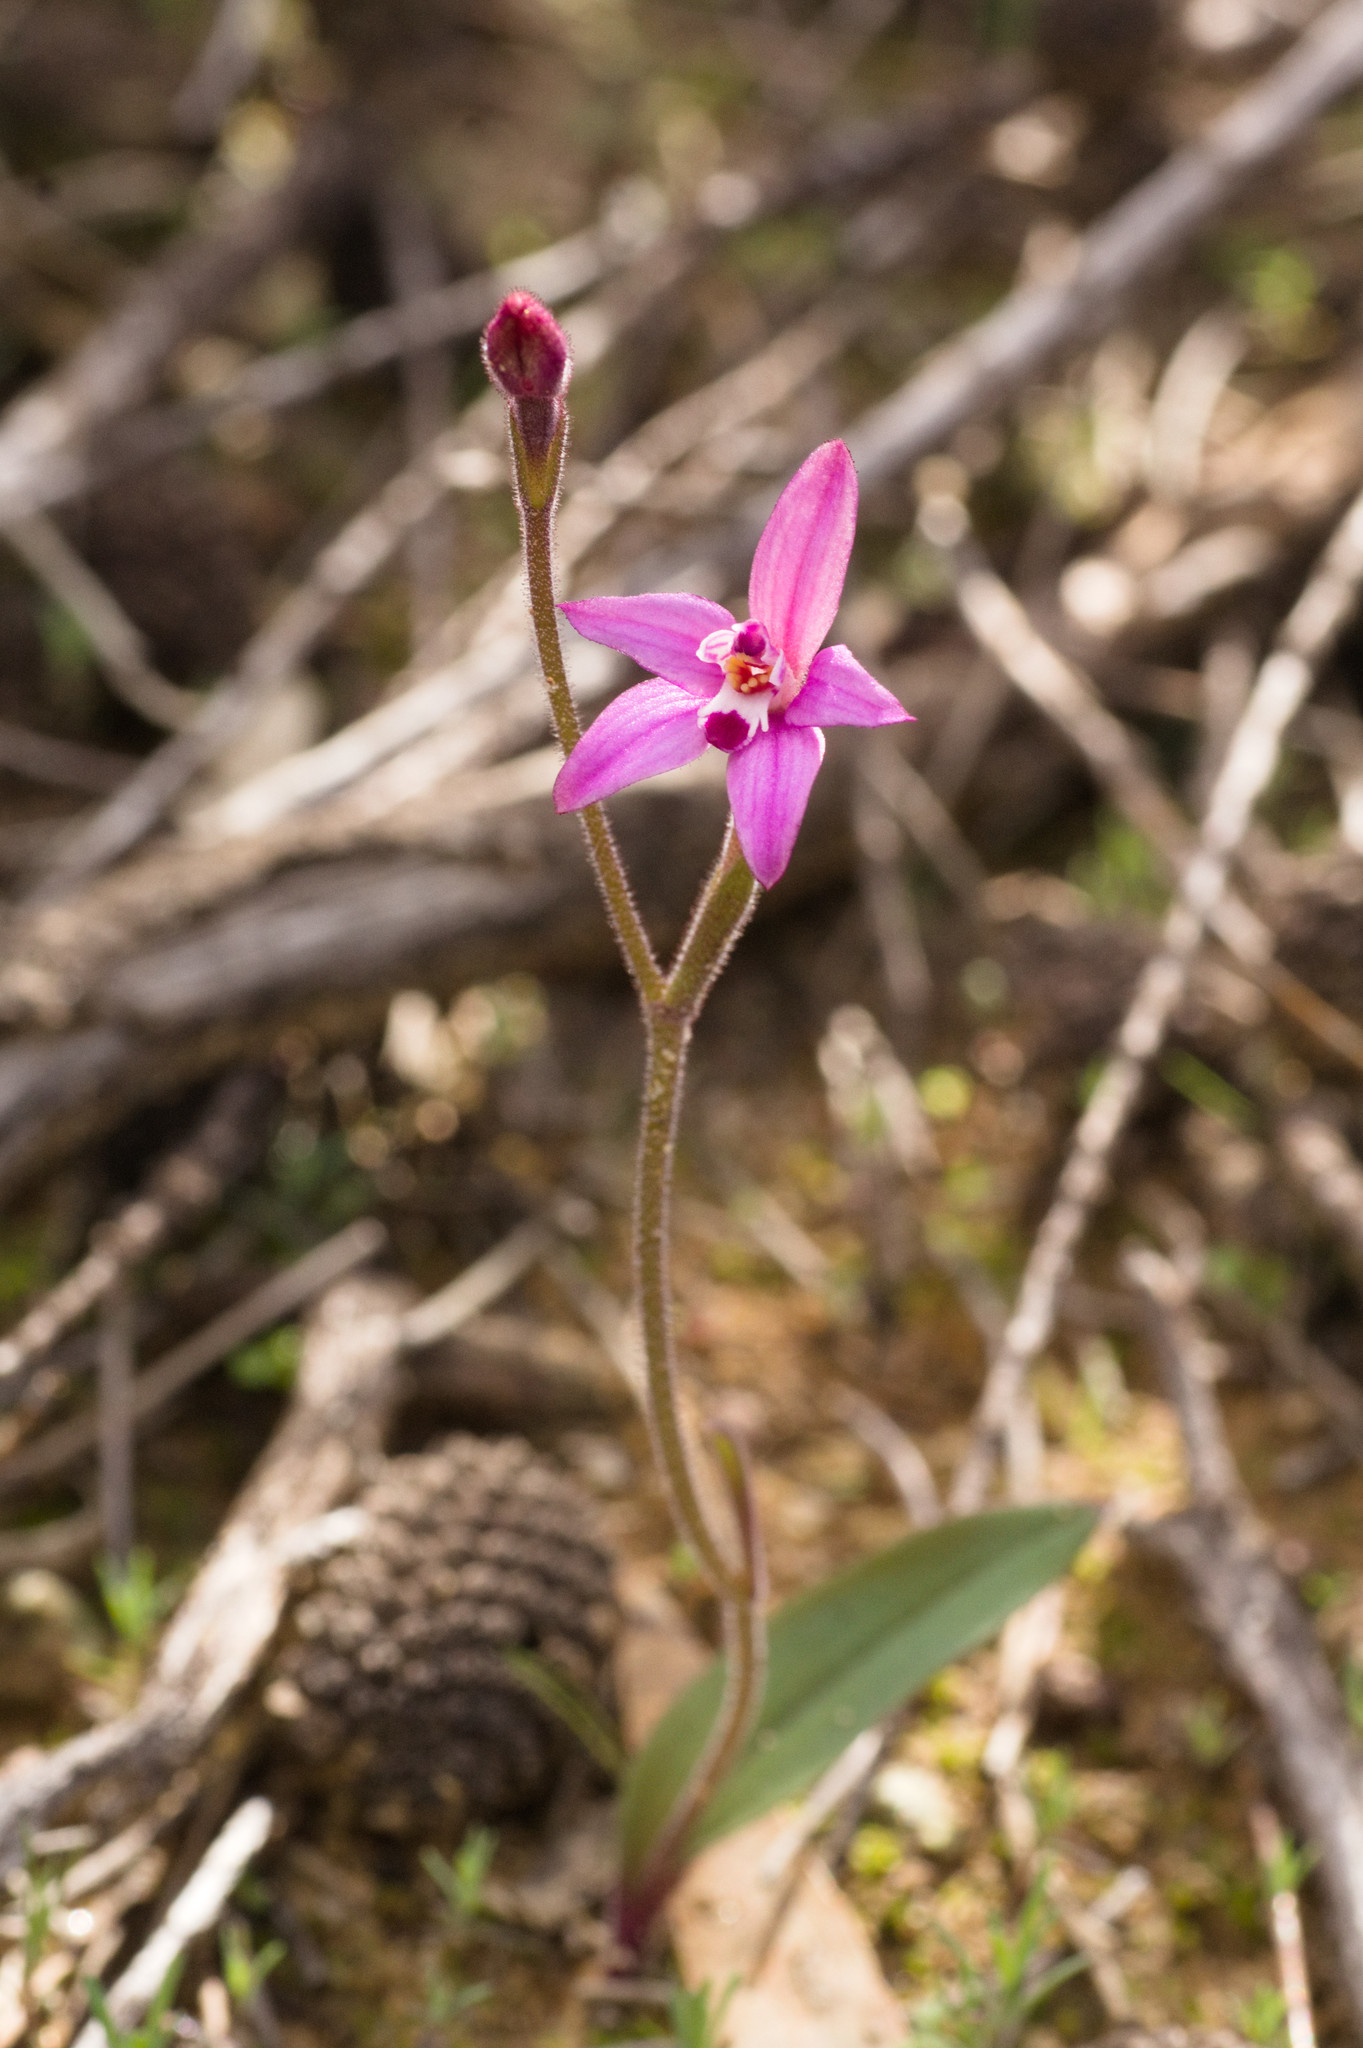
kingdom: Plantae
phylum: Tracheophyta
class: Liliopsida
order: Asparagales
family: Orchidaceae
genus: Caladenia
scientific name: Caladenia reptans
